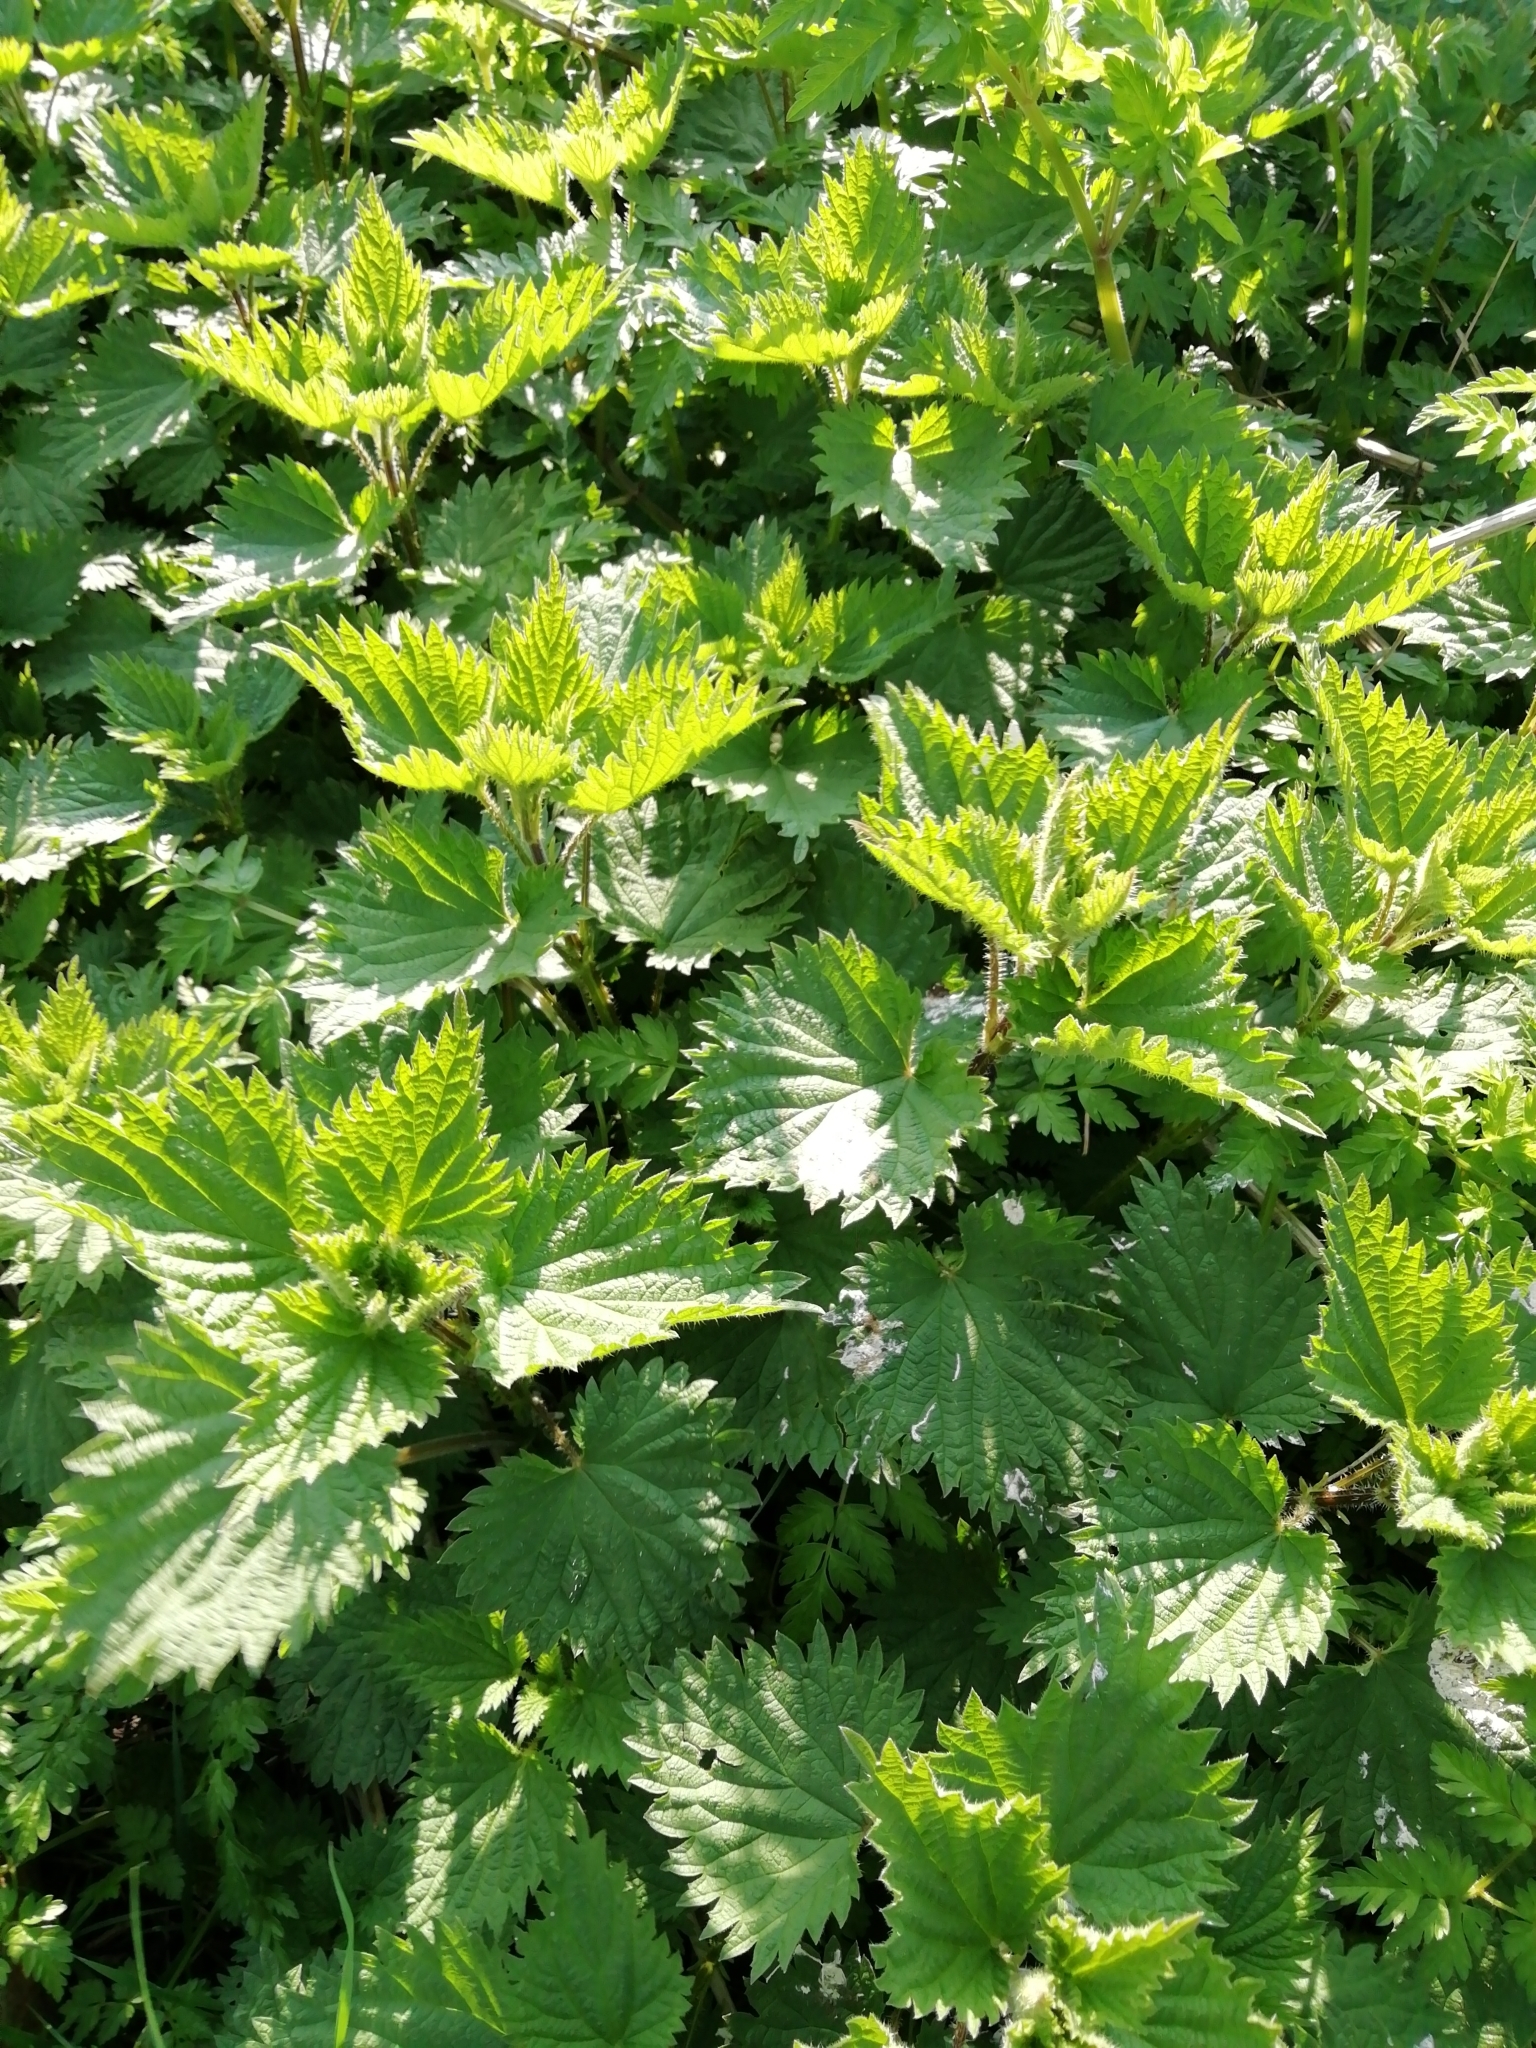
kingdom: Plantae
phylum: Tracheophyta
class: Magnoliopsida
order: Rosales
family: Urticaceae
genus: Urtica
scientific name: Urtica dioica
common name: Common nettle
